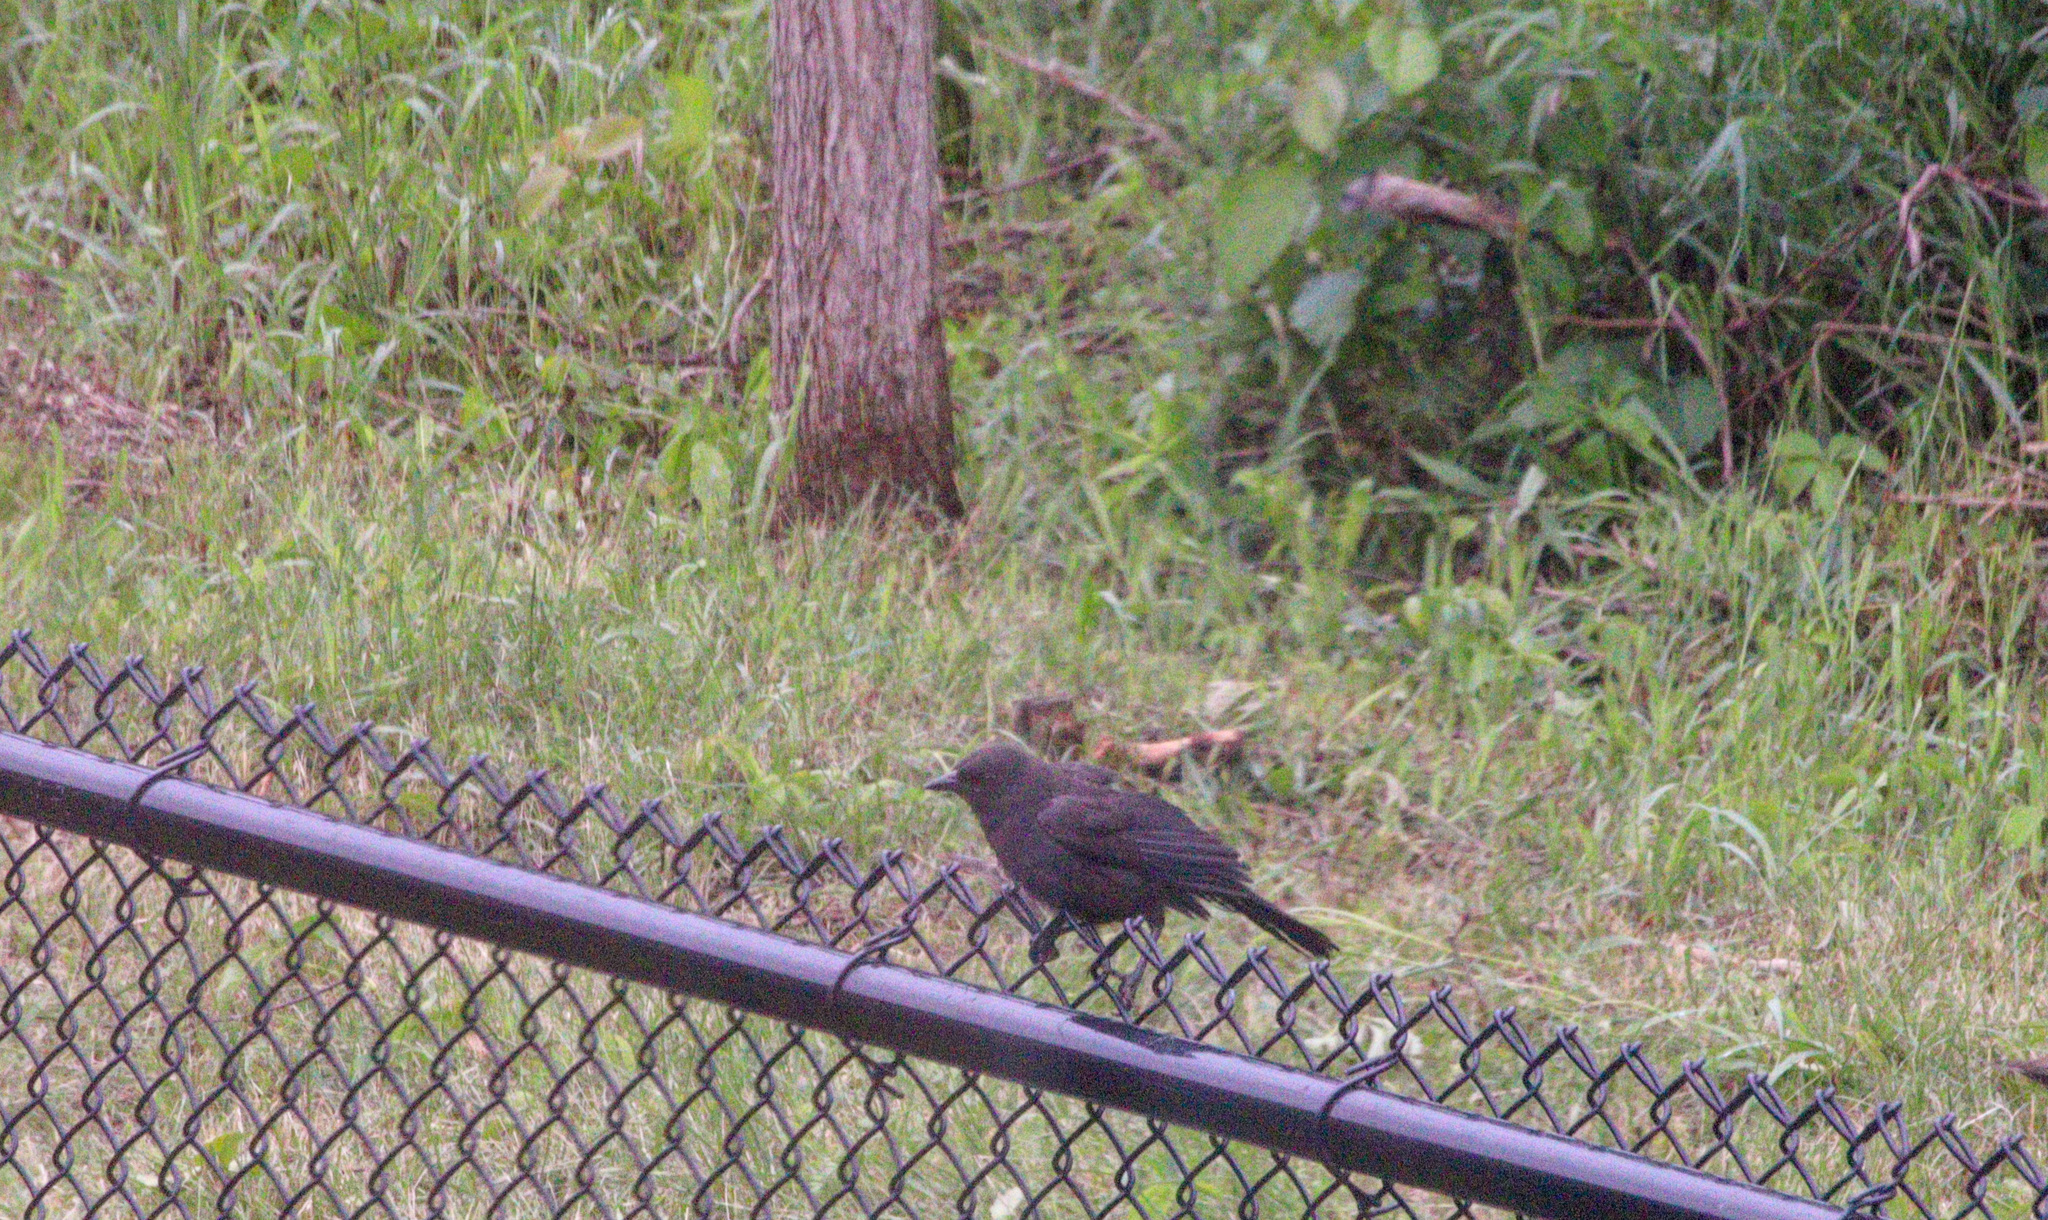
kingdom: Animalia
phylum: Chordata
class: Aves
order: Passeriformes
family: Icteridae
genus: Molothrus
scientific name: Molothrus ater
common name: Brown-headed cowbird
